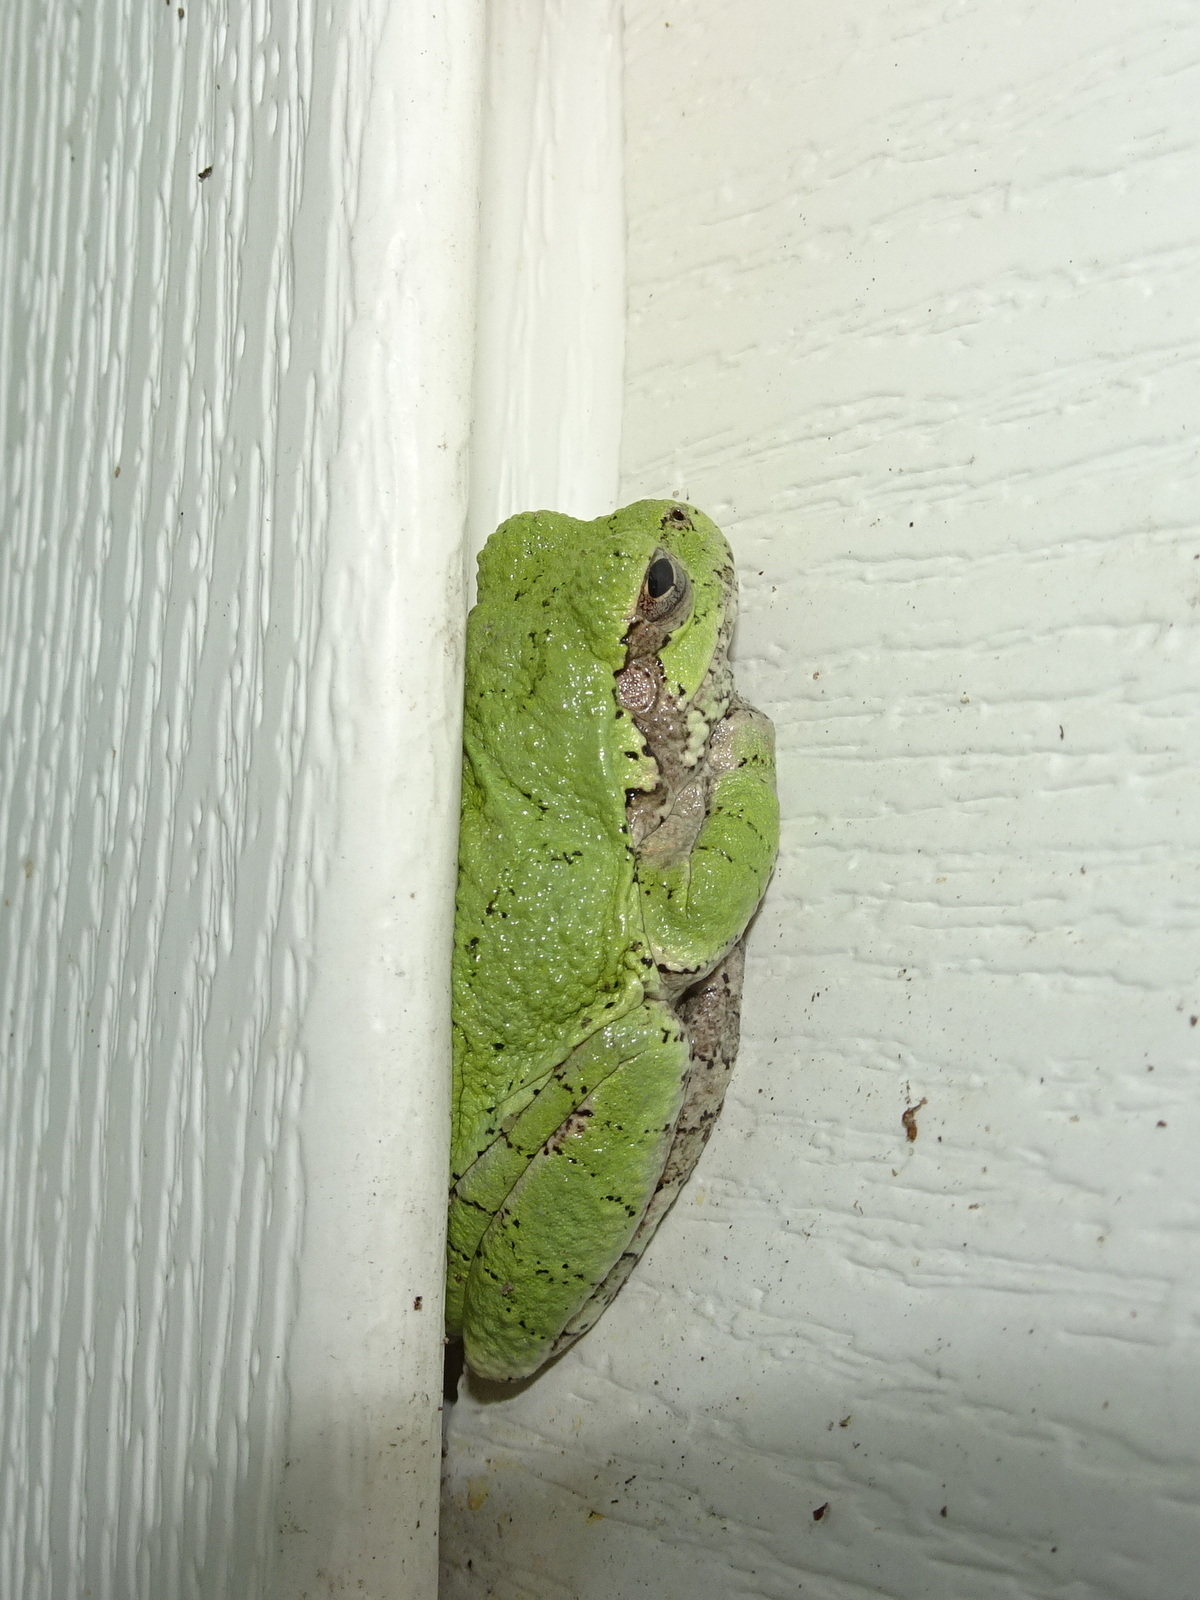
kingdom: Animalia
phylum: Chordata
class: Amphibia
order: Anura
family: Hylidae
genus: Hyla
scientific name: Hyla
